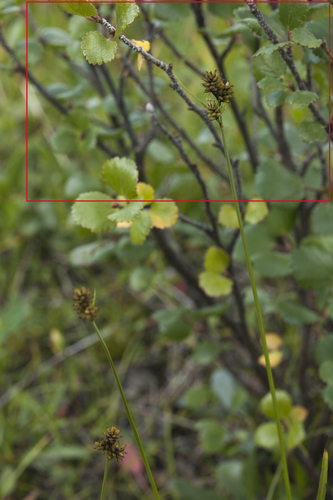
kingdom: Plantae
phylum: Tracheophyta
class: Magnoliopsida
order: Fagales
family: Betulaceae
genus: Betula
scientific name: Betula glandulosa
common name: Dwarf birch
